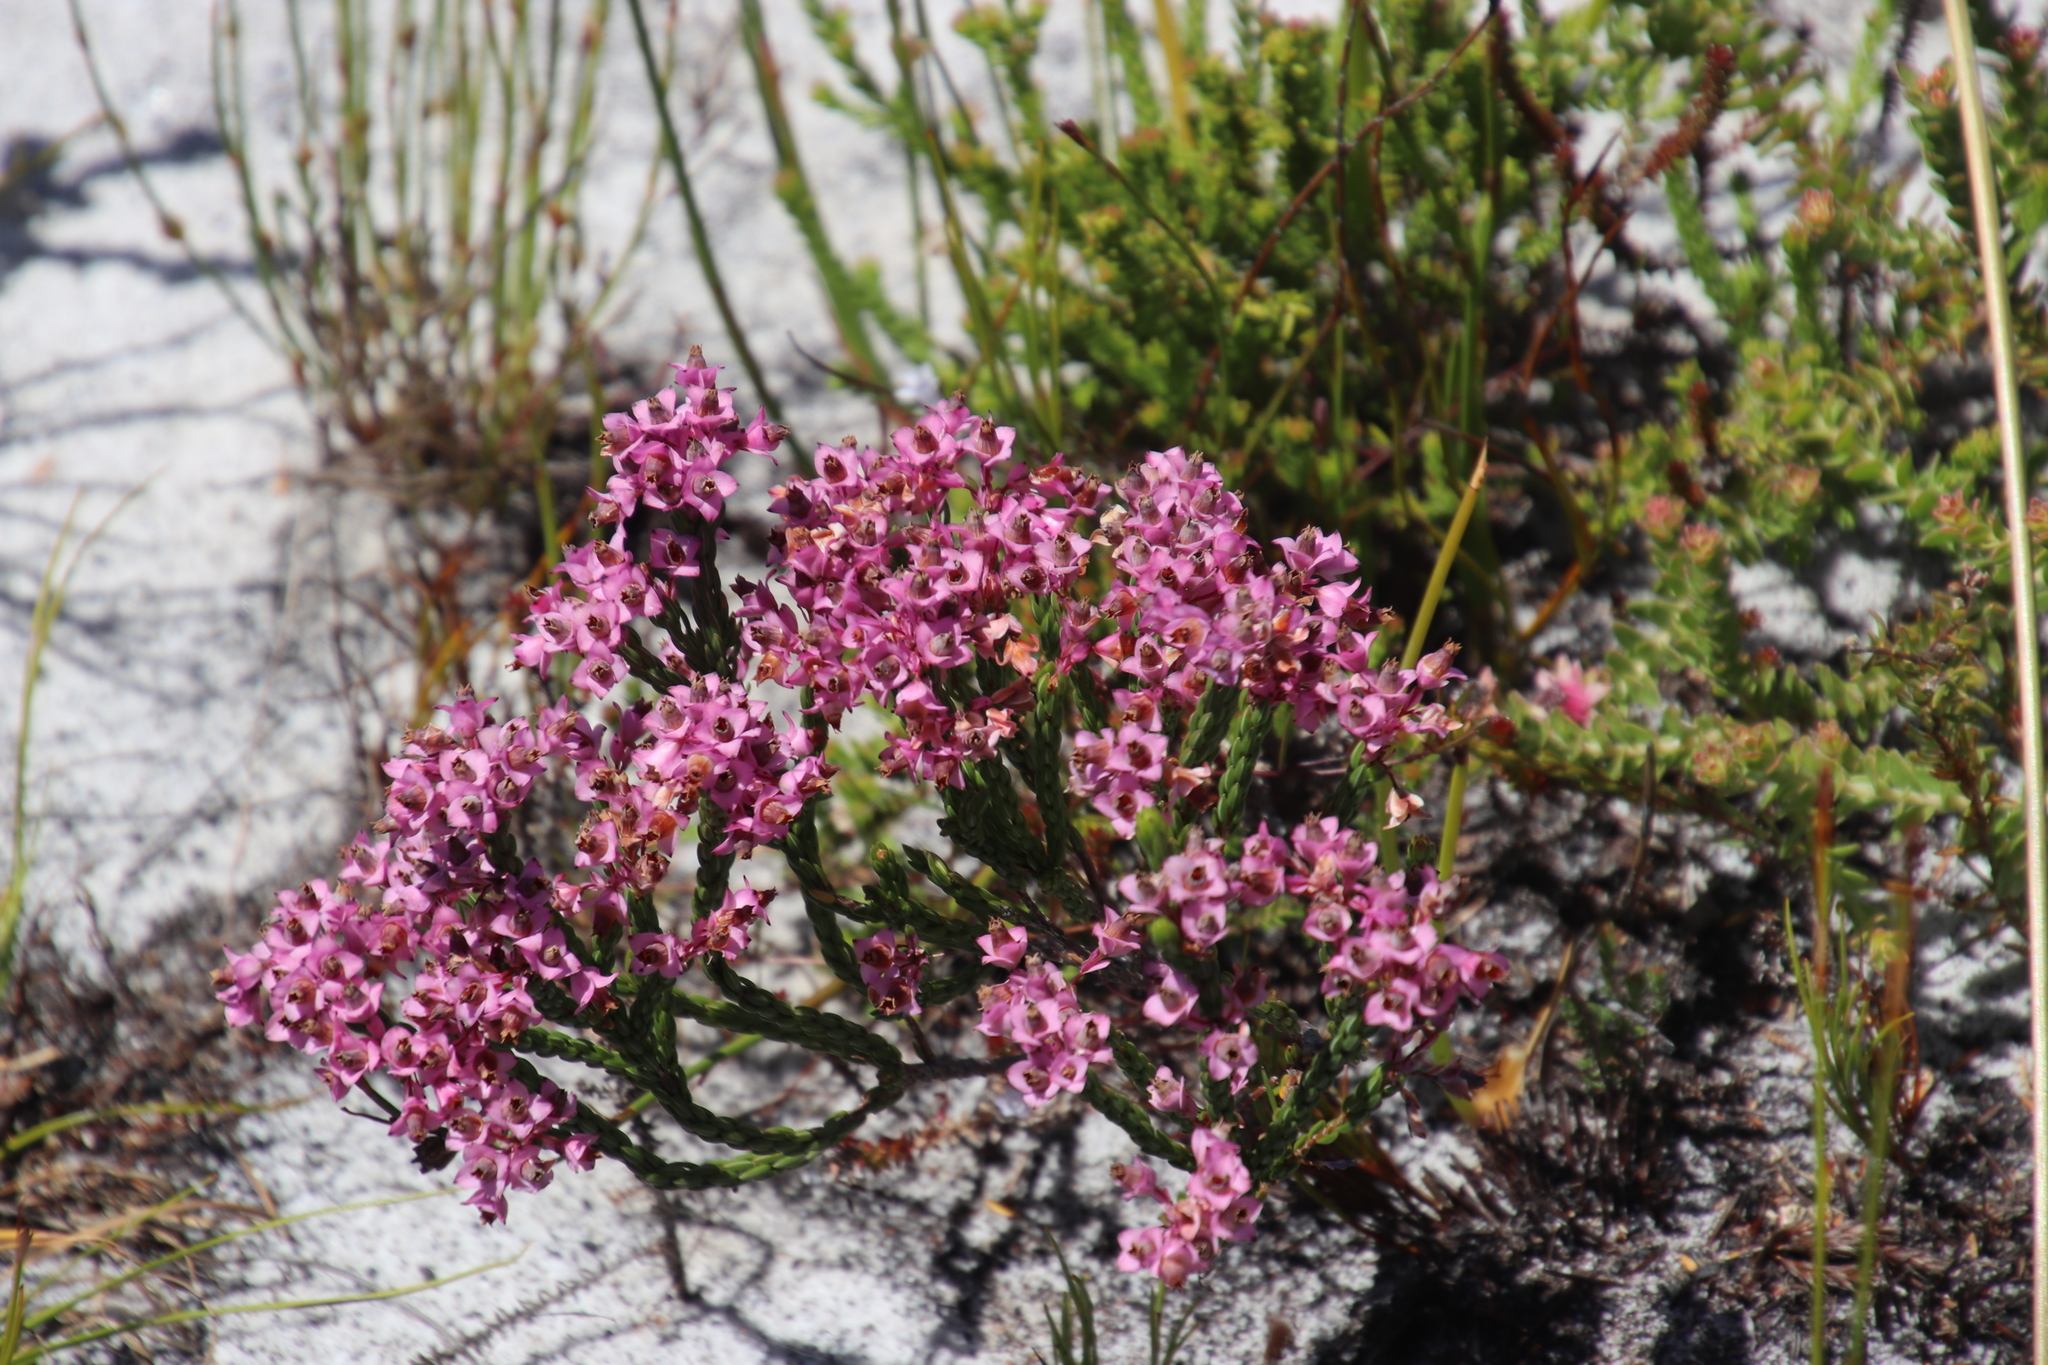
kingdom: Plantae
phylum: Tracheophyta
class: Magnoliopsida
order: Ericales
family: Ericaceae
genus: Erica
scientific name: Erica corifolia
